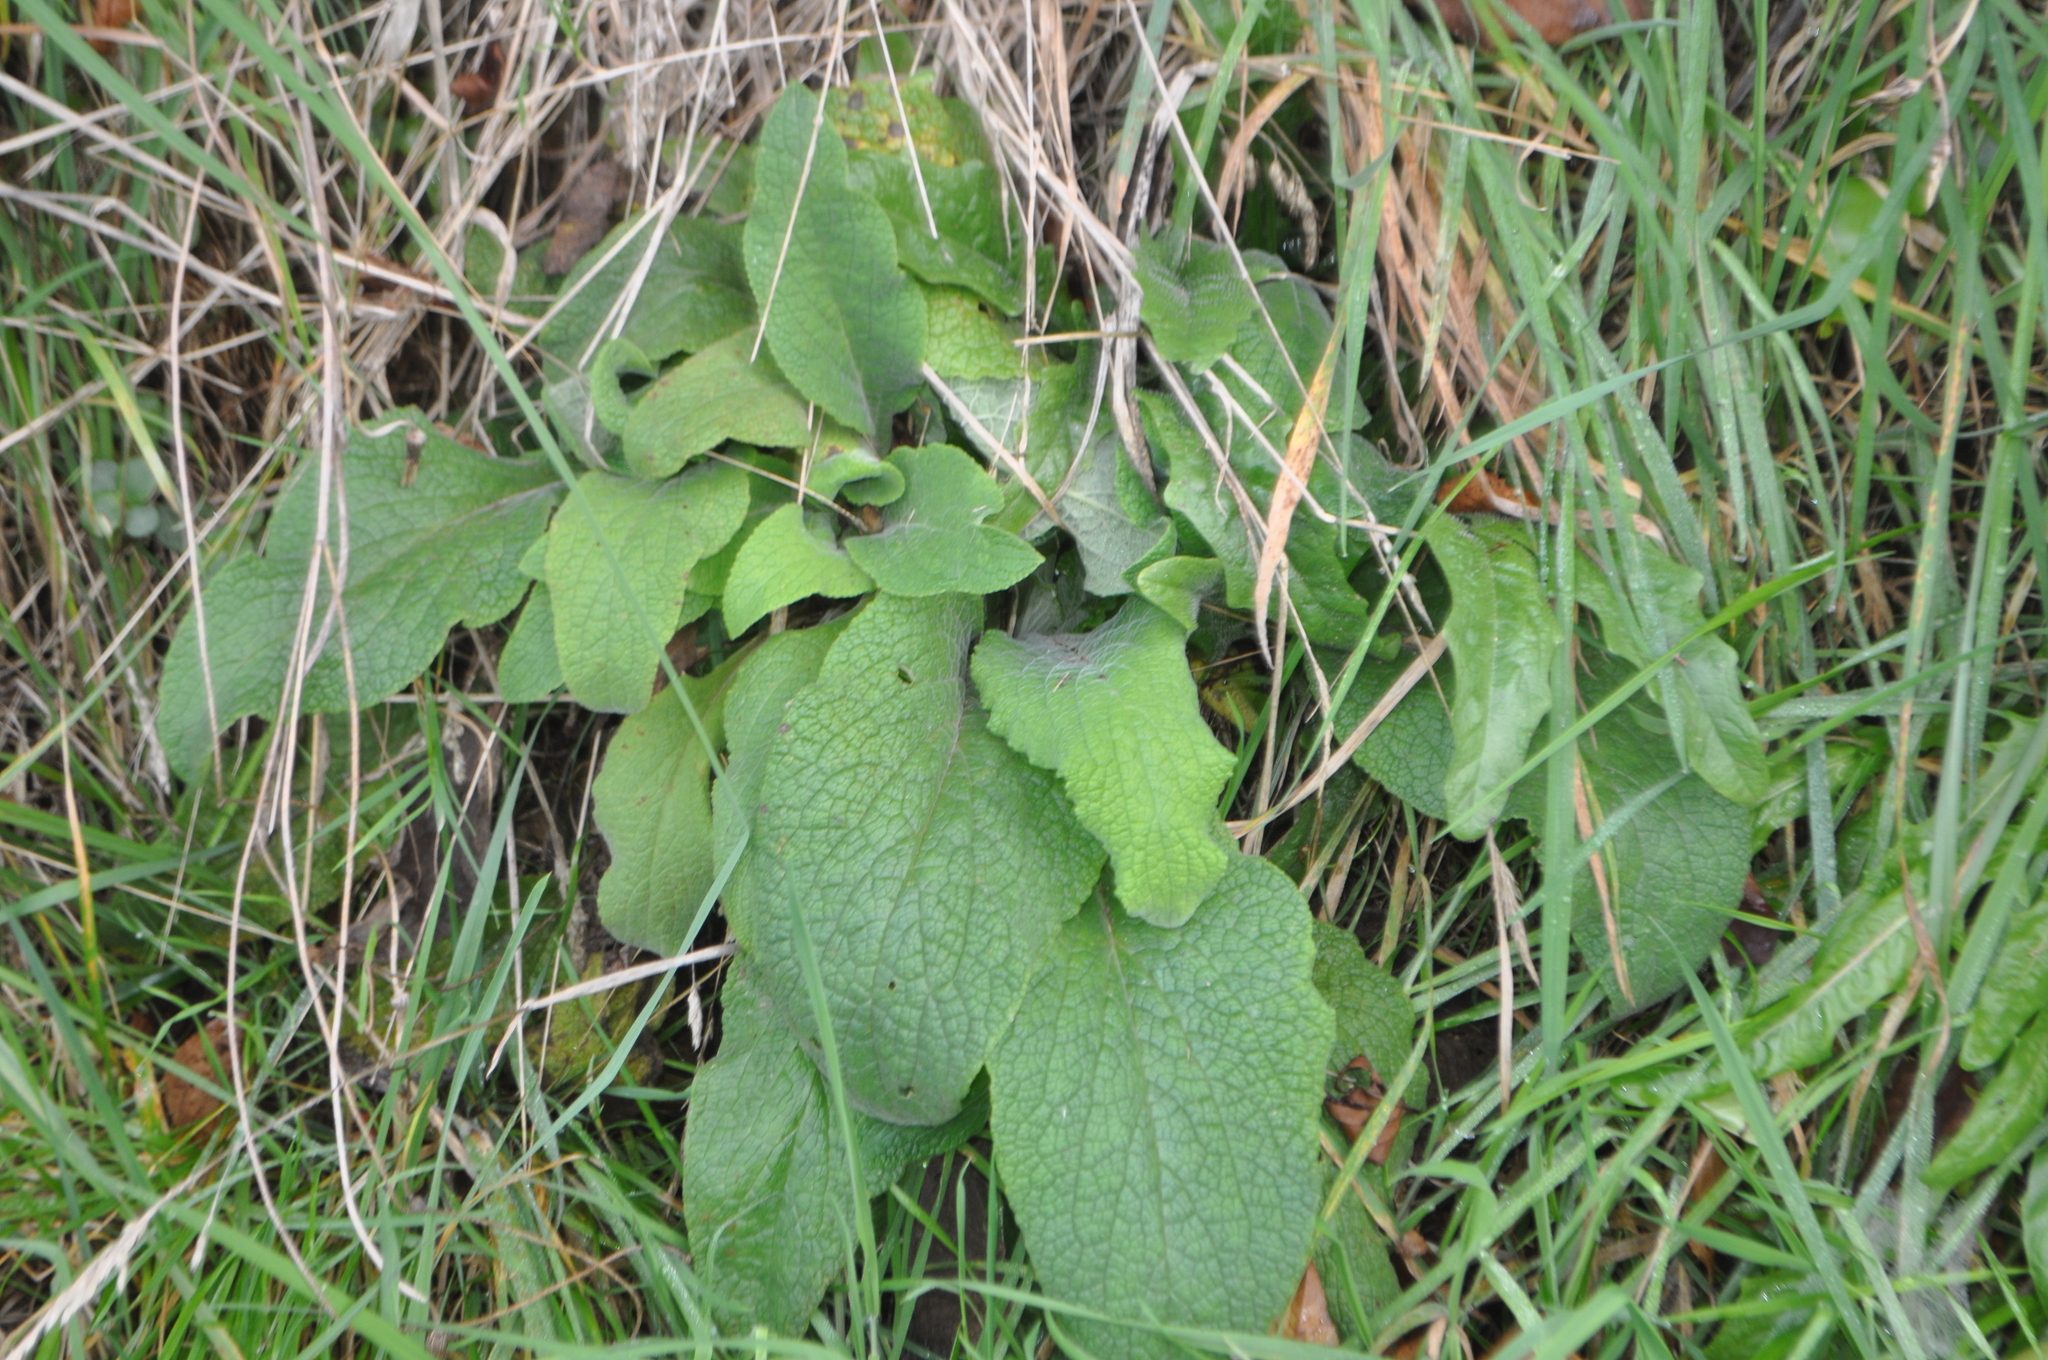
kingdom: Plantae
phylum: Tracheophyta
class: Magnoliopsida
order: Lamiales
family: Plantaginaceae
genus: Digitalis
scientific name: Digitalis purpurea
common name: Foxglove
